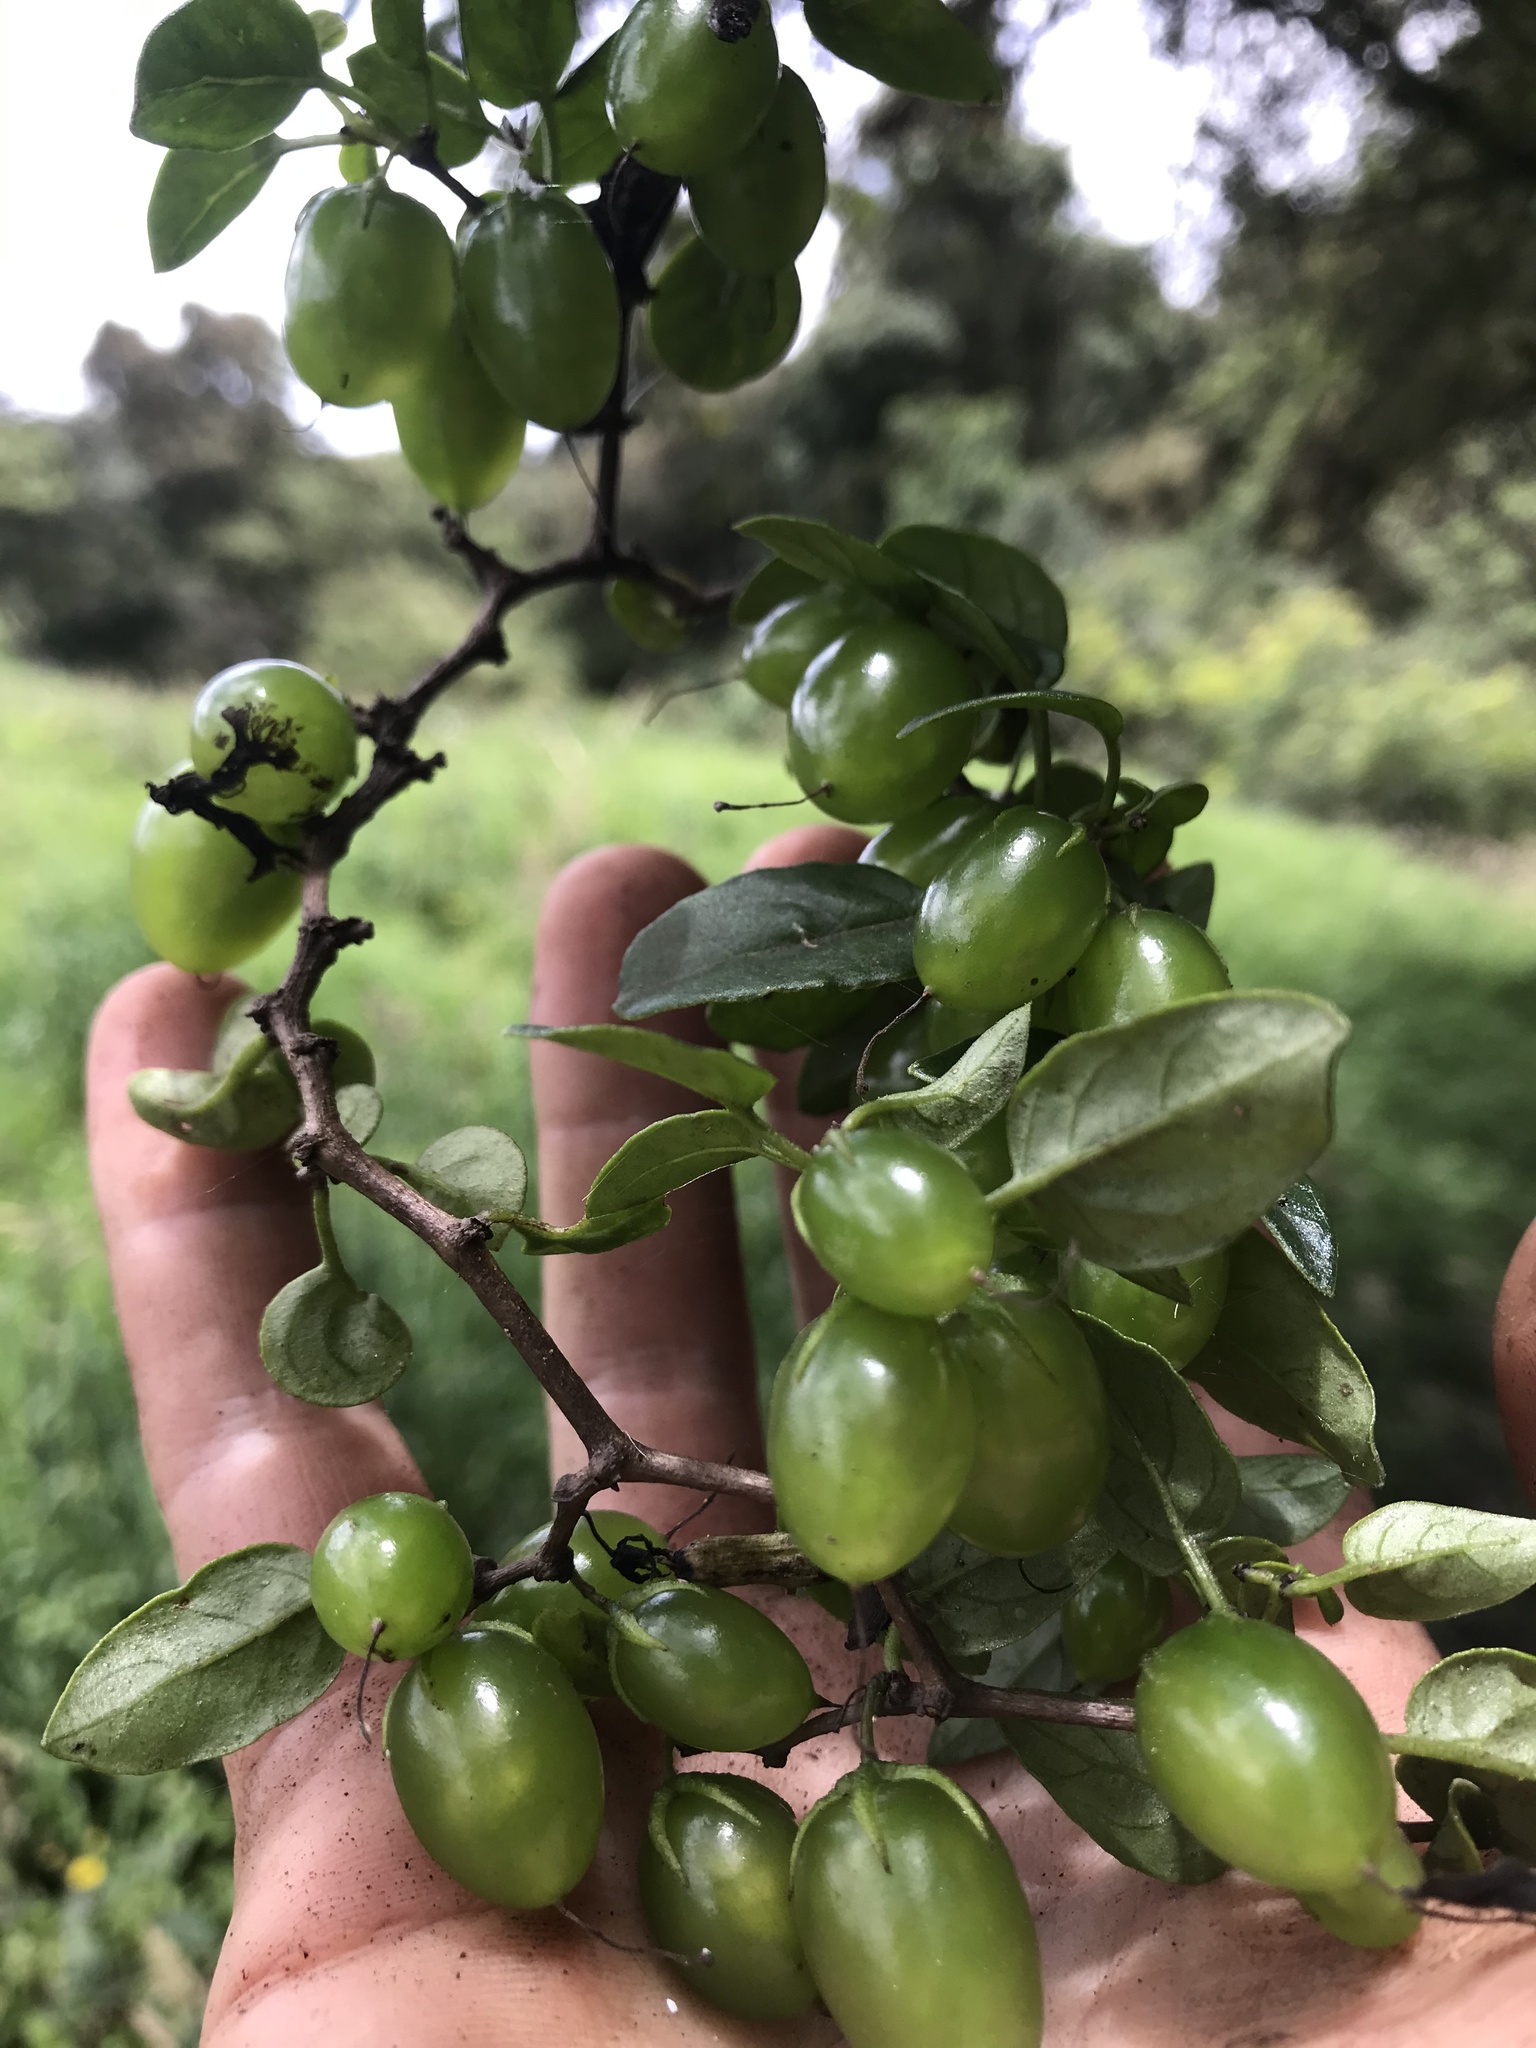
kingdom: Plantae
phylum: Tracheophyta
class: Magnoliopsida
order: Solanales
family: Solanaceae
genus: Salpichroa
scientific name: Salpichroa tristis
